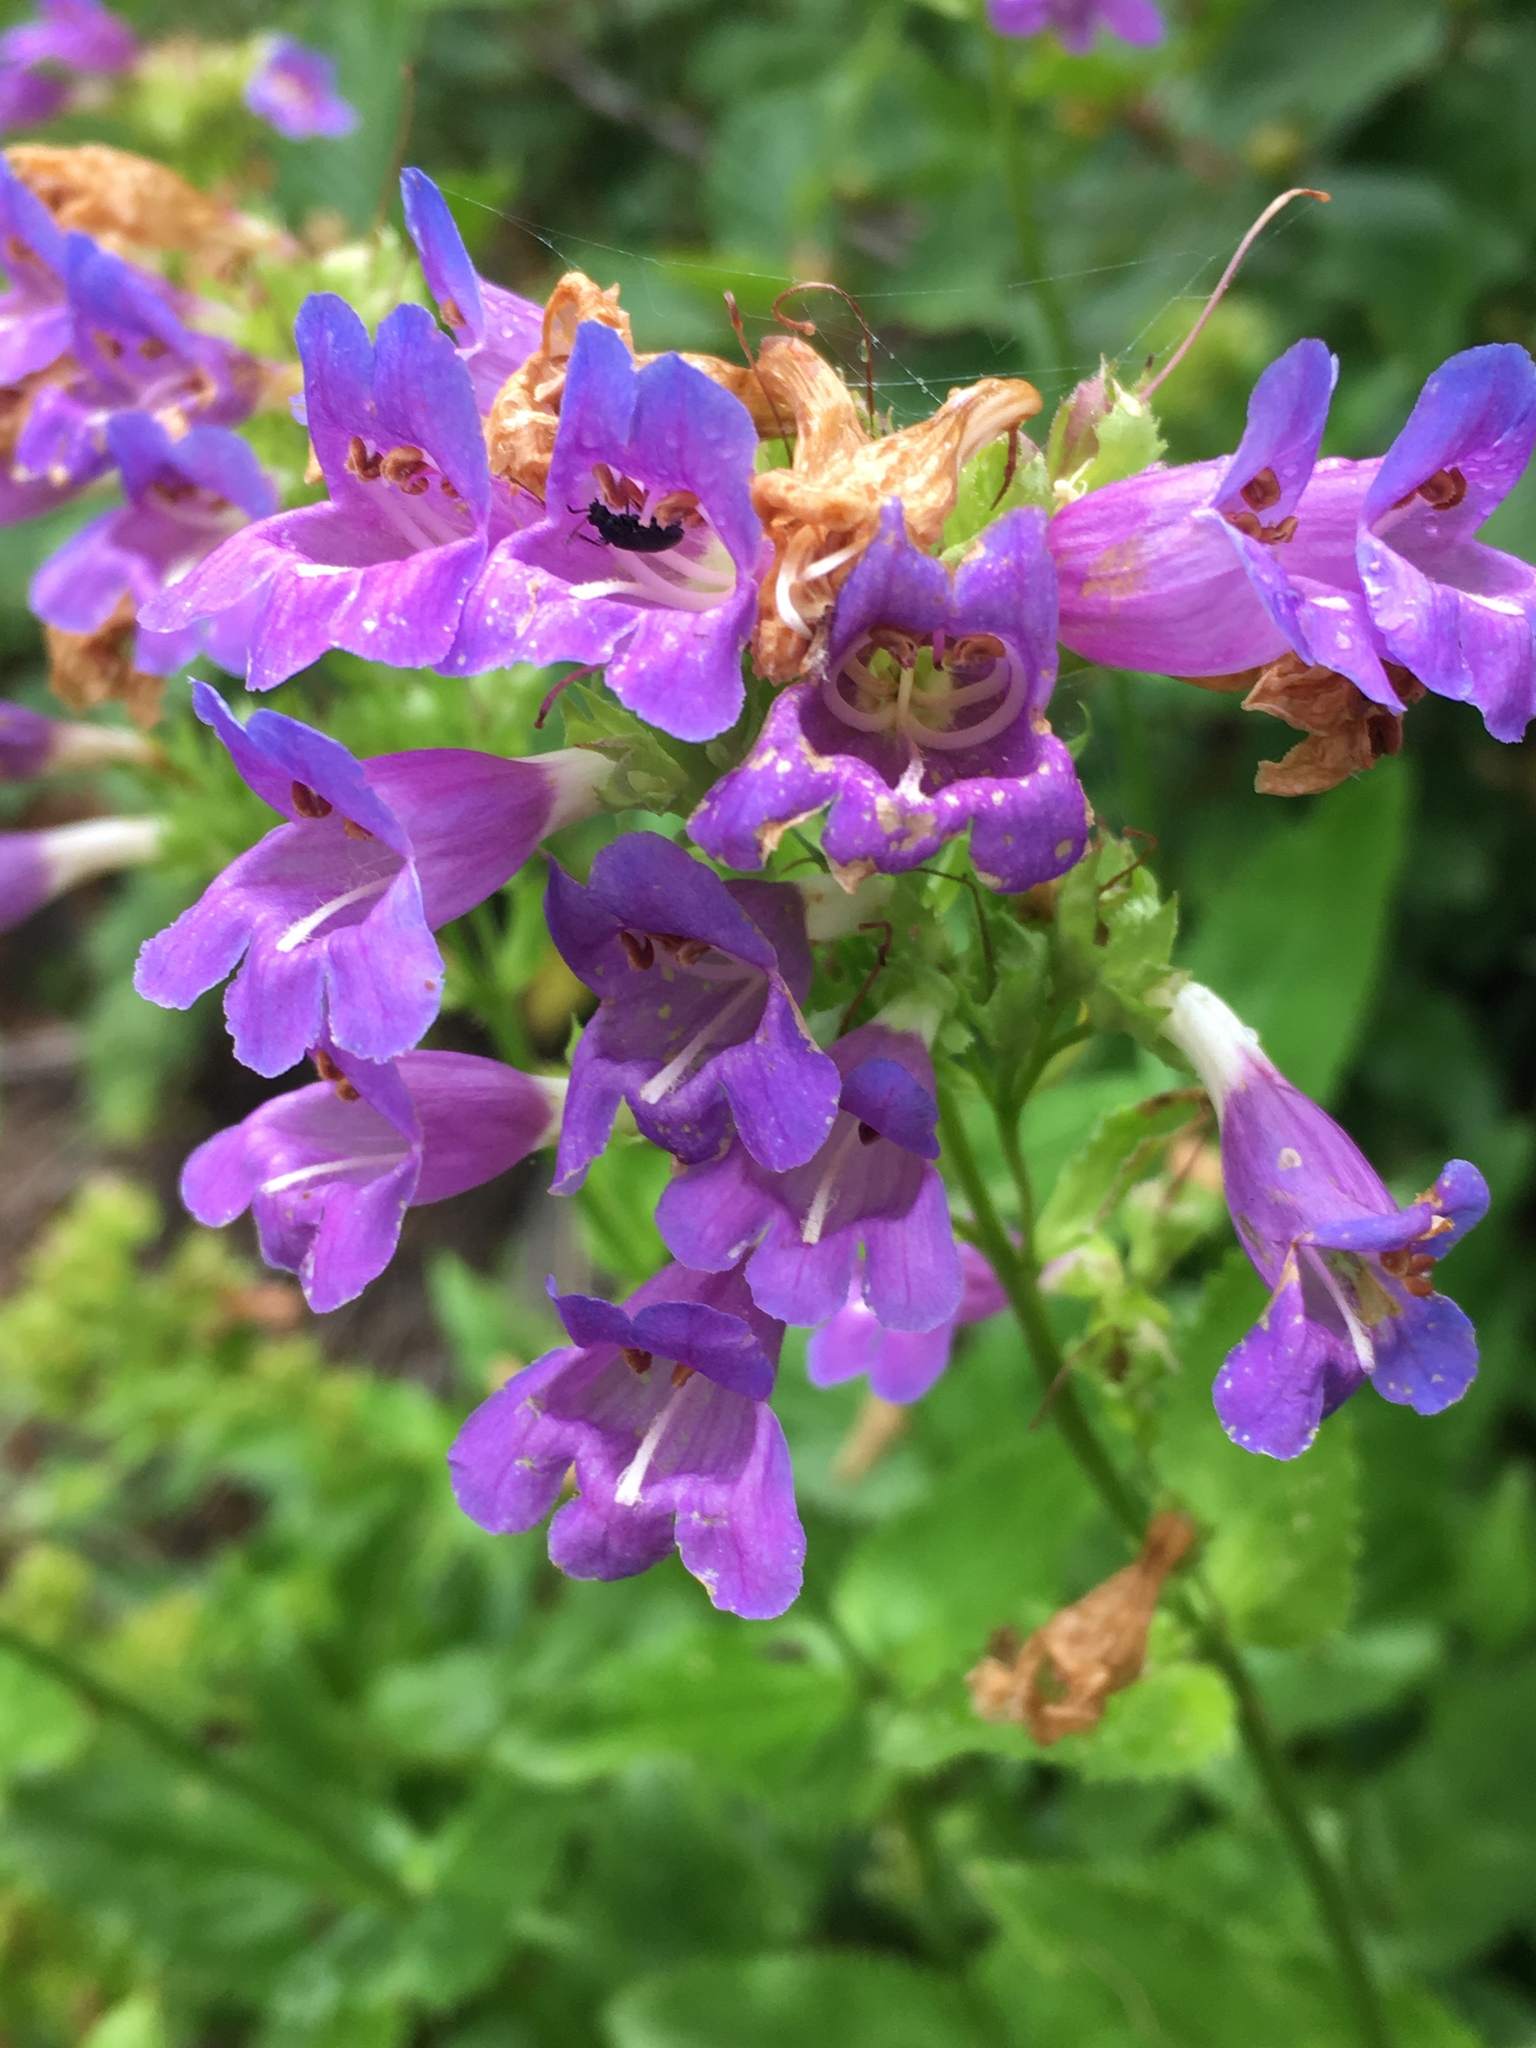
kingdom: Plantae
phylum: Tracheophyta
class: Magnoliopsida
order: Lamiales
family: Plantaginaceae
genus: Penstemon
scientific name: Penstemon serrulatus
